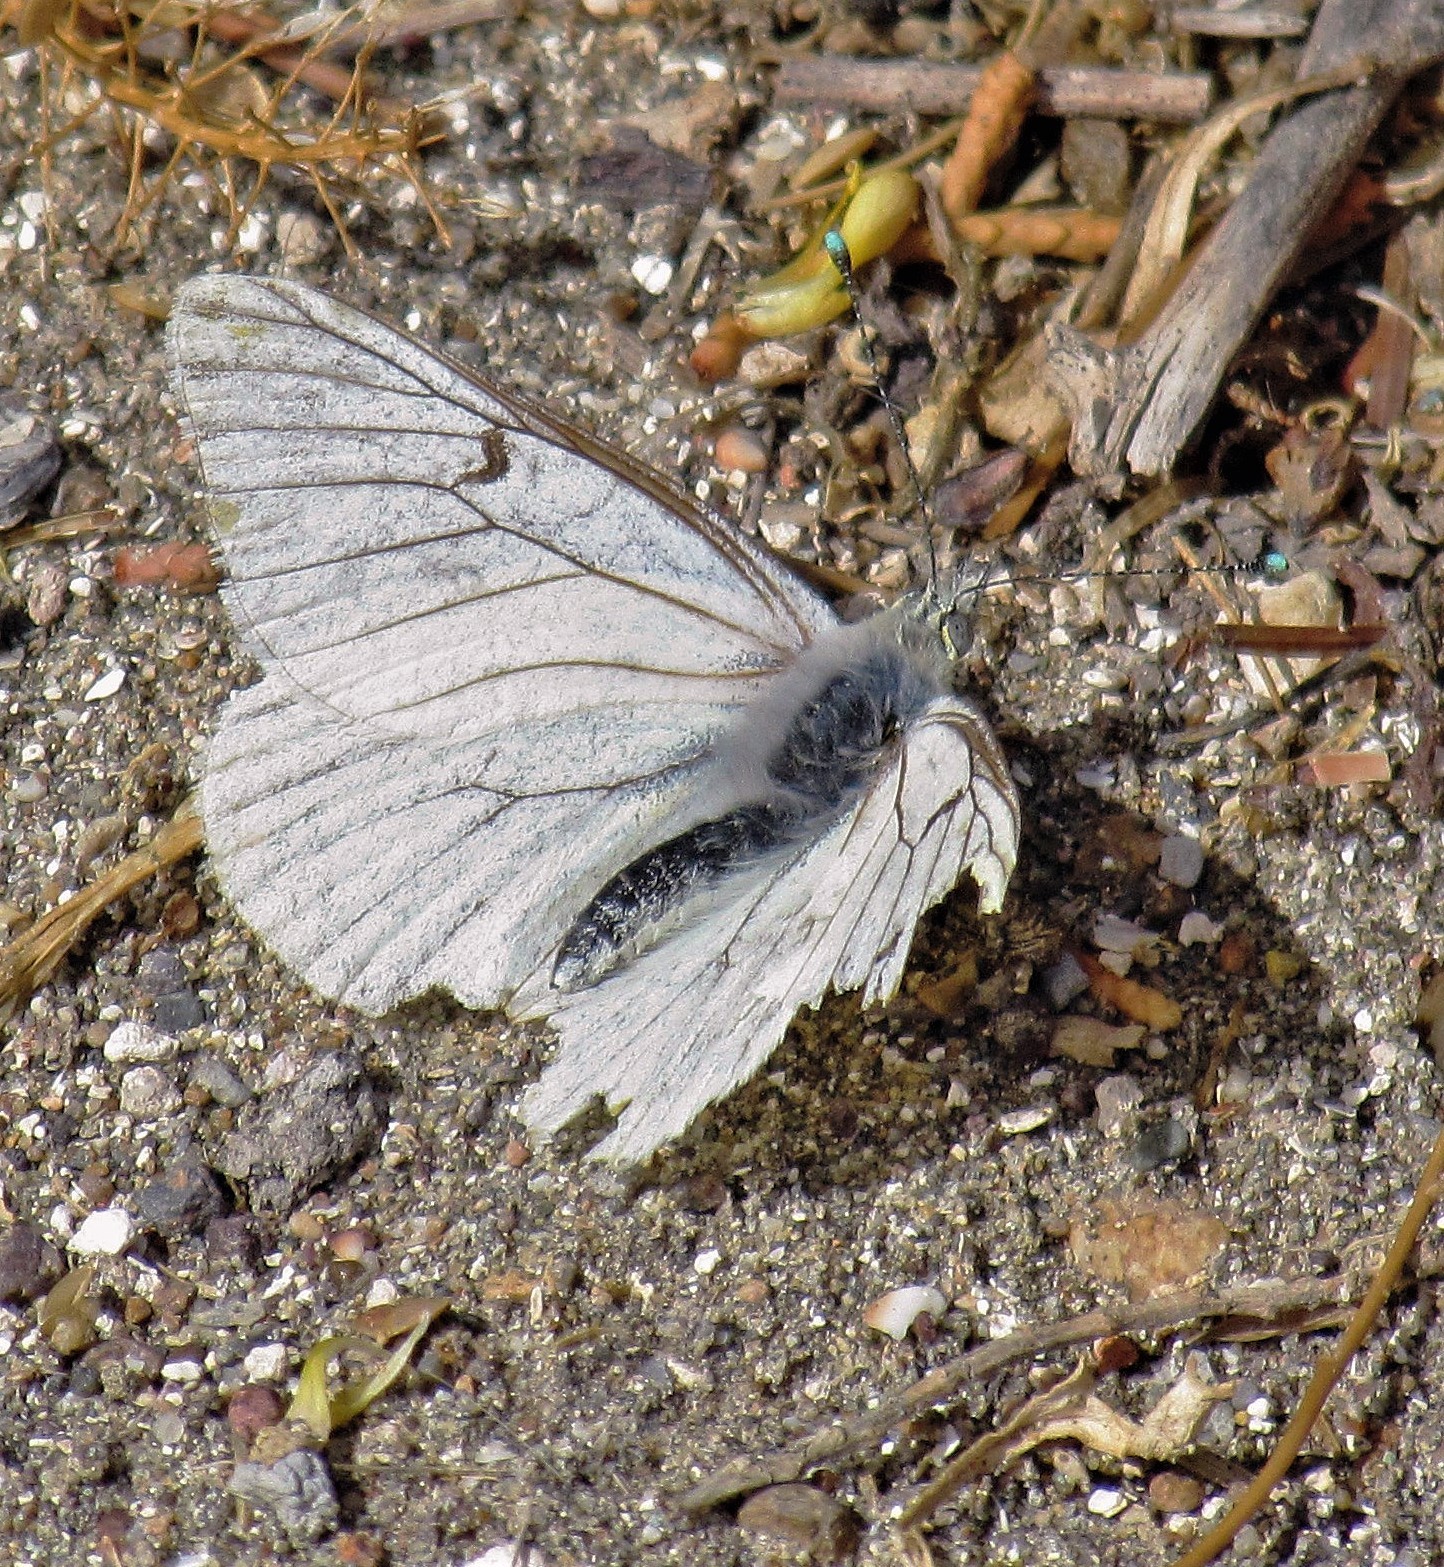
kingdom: Animalia
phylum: Arthropoda
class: Insecta
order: Lepidoptera
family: Pieridae
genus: Tatochila
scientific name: Tatochila mercedis
